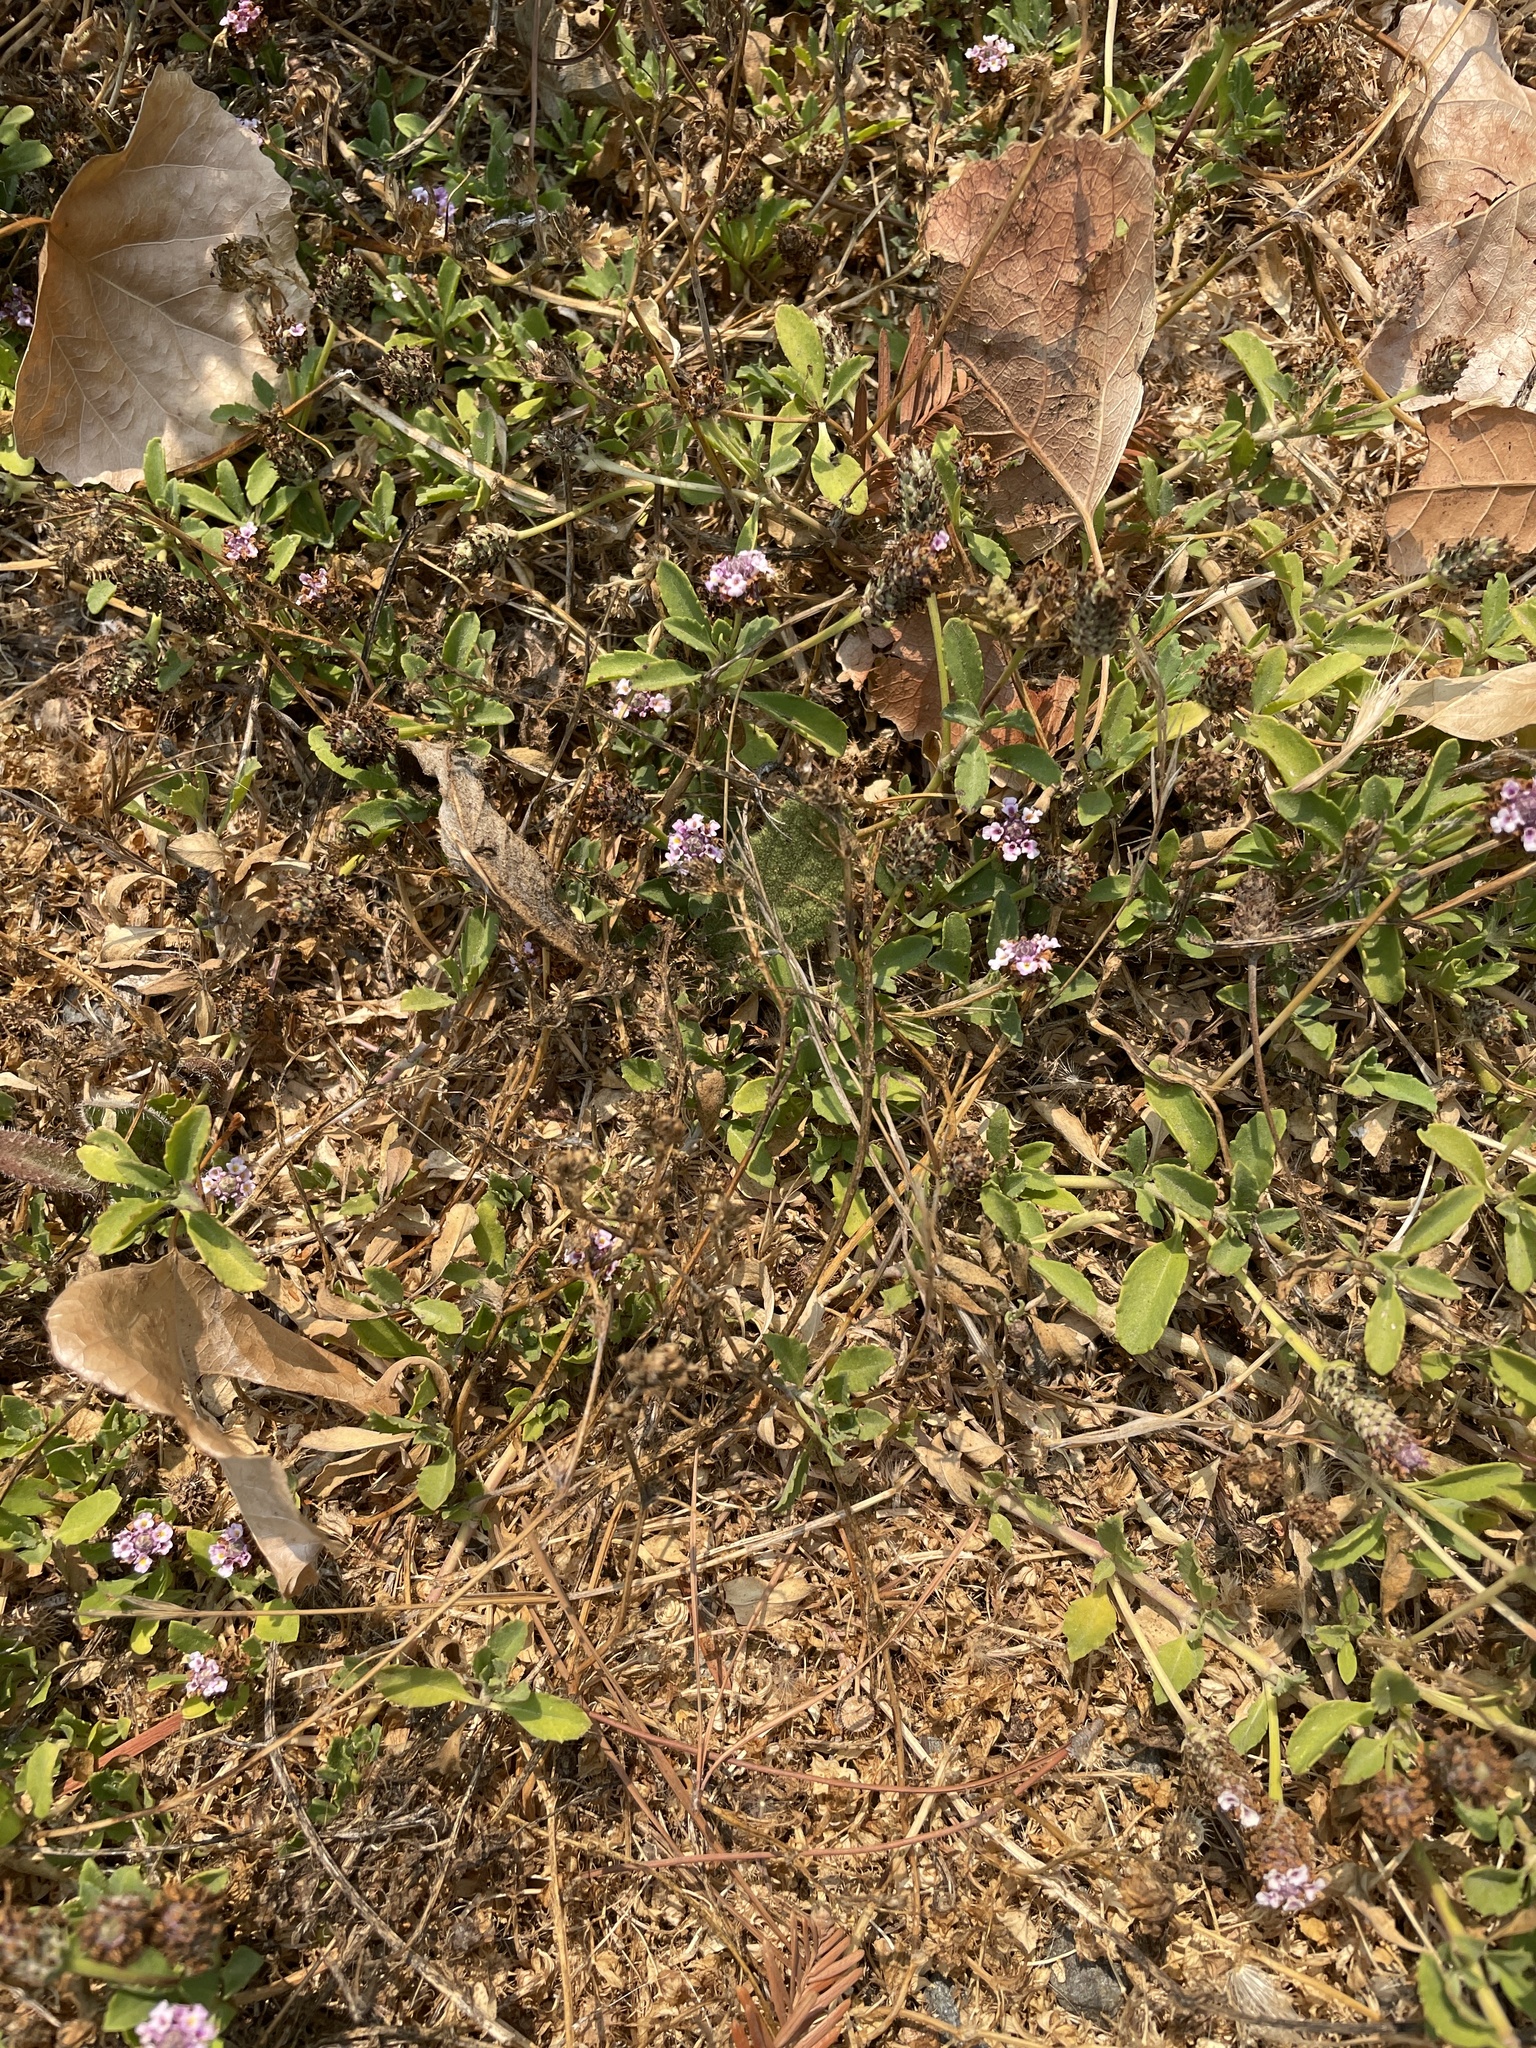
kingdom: Plantae
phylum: Tracheophyta
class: Magnoliopsida
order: Lamiales
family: Verbenaceae
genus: Phyla
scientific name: Phyla nodiflora
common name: Frogfruit
